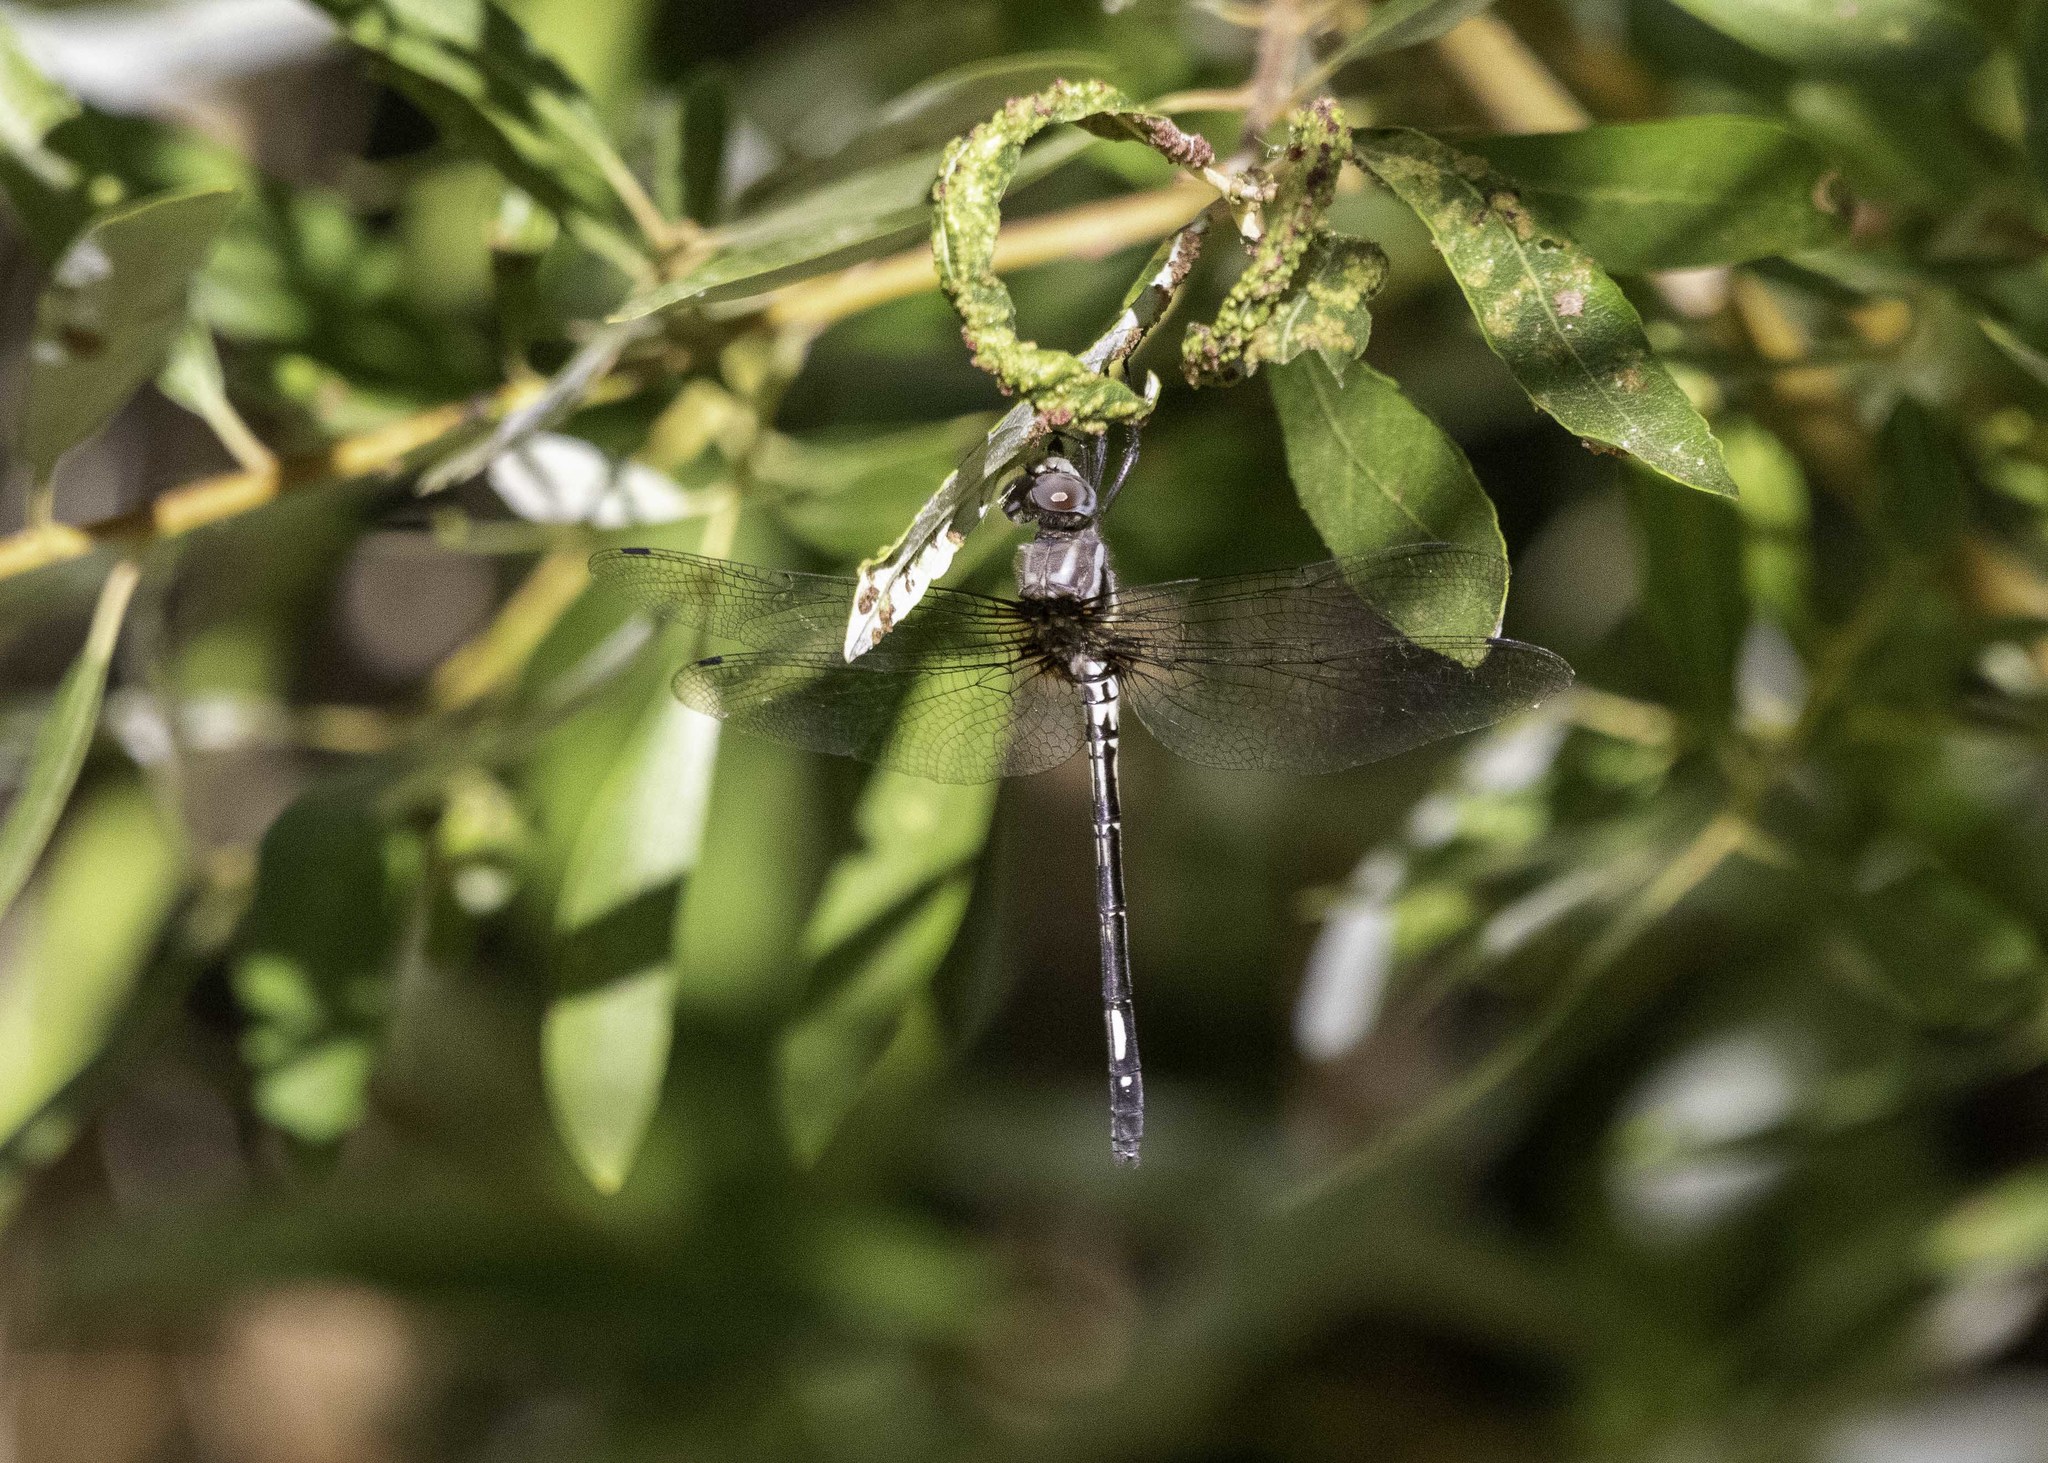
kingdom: Animalia
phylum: Arthropoda
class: Insecta
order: Odonata
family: Libellulidae
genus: Brechmorhoga
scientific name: Brechmorhoga mendax
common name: Pale-faced clubskimmer
